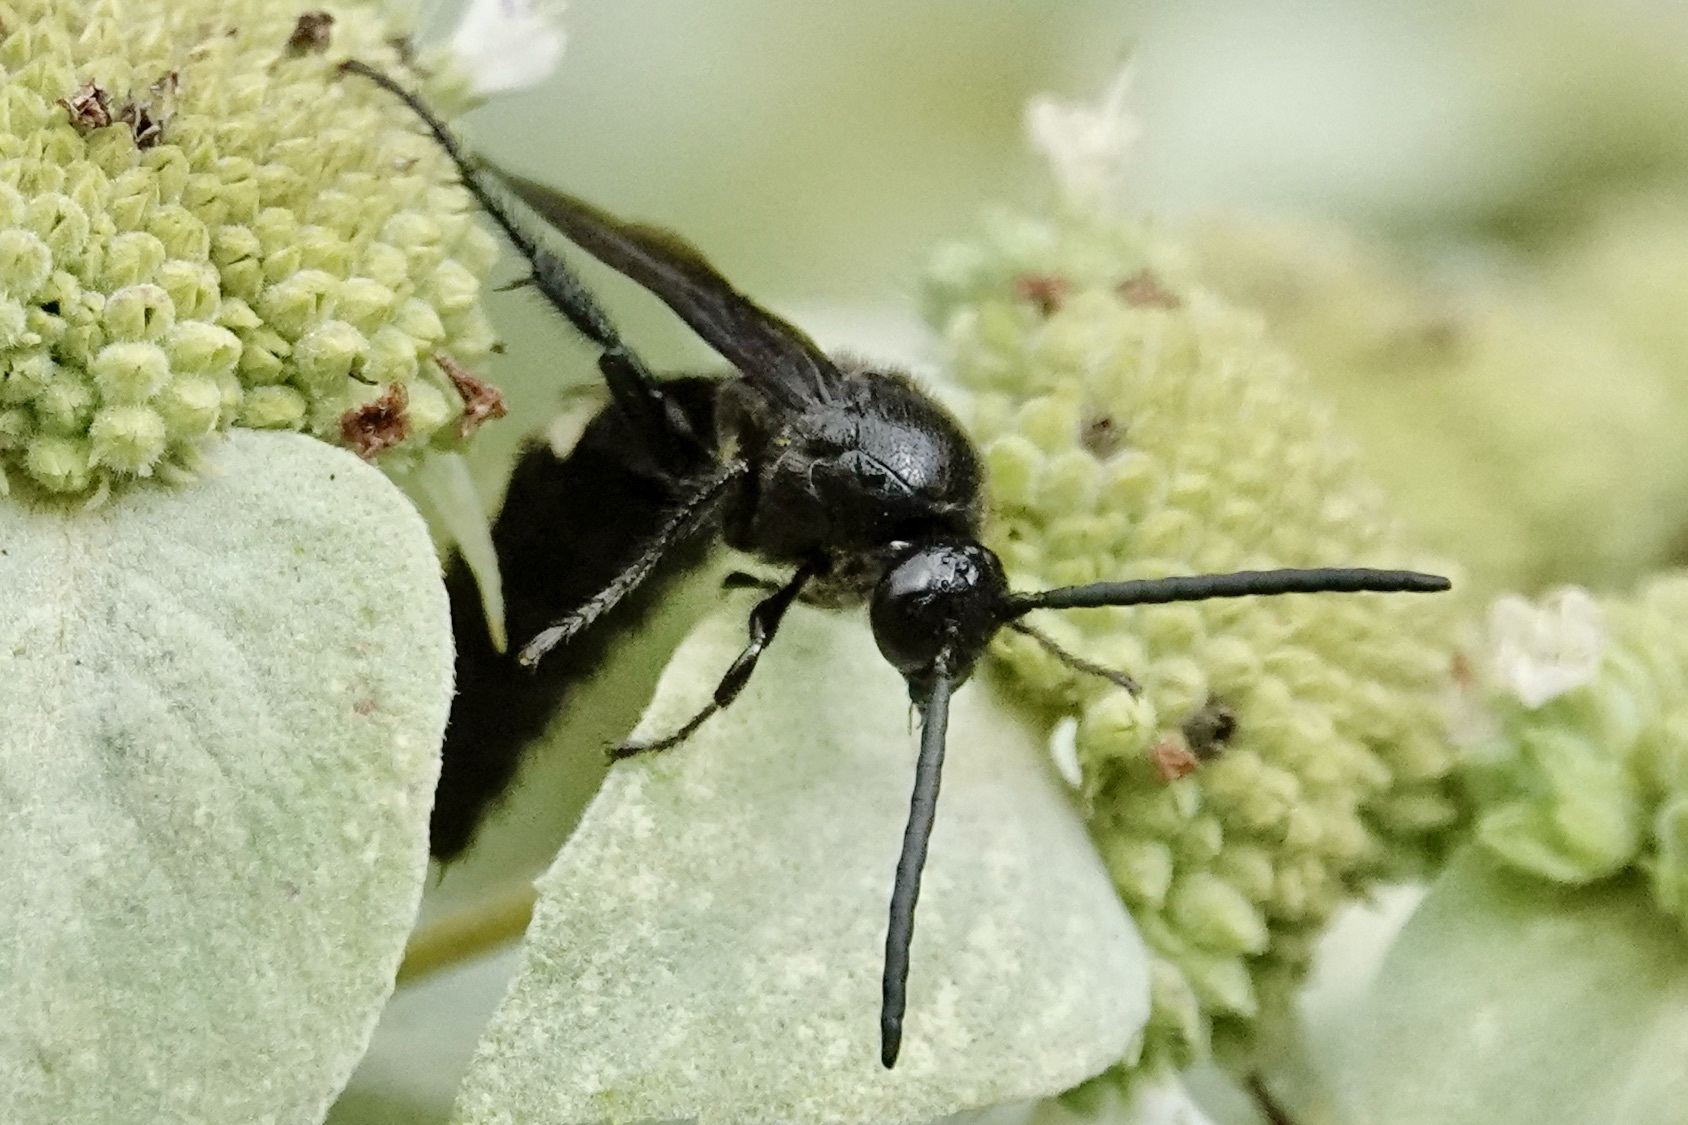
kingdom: Animalia
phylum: Arthropoda
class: Insecta
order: Hymenoptera
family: Scoliidae
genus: Scolia
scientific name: Scolia bicincta
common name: Double-banded scoliid wasp
